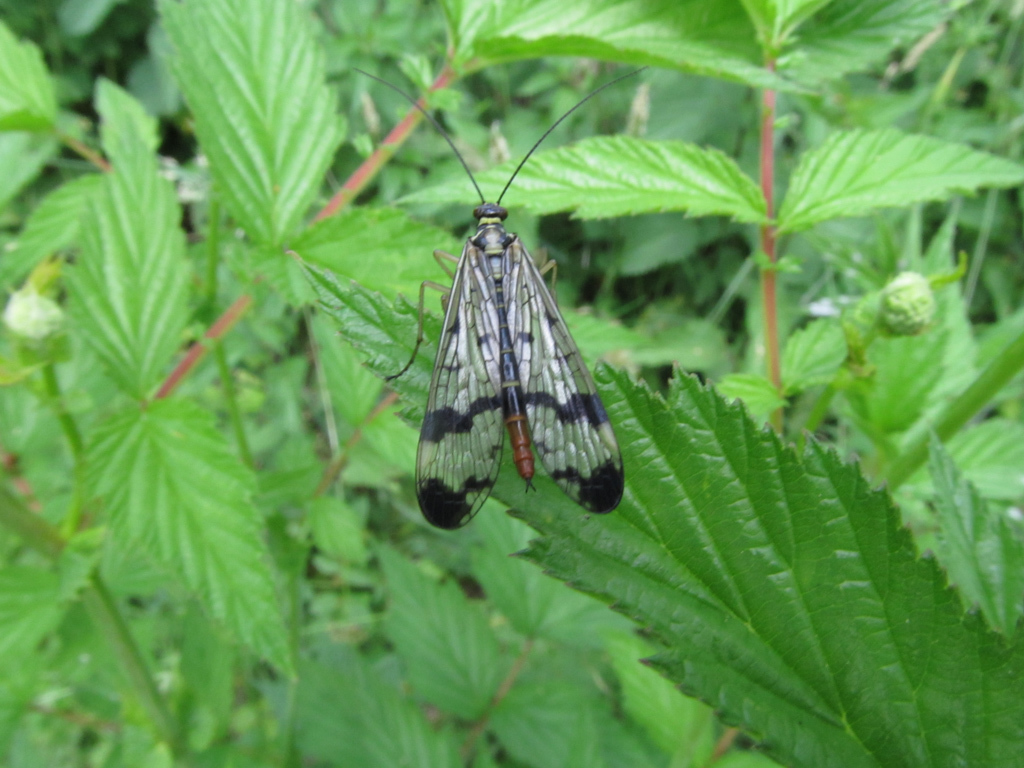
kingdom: Animalia
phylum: Arthropoda
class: Insecta
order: Mecoptera
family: Panorpidae
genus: Panorpa
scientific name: Panorpa communis
